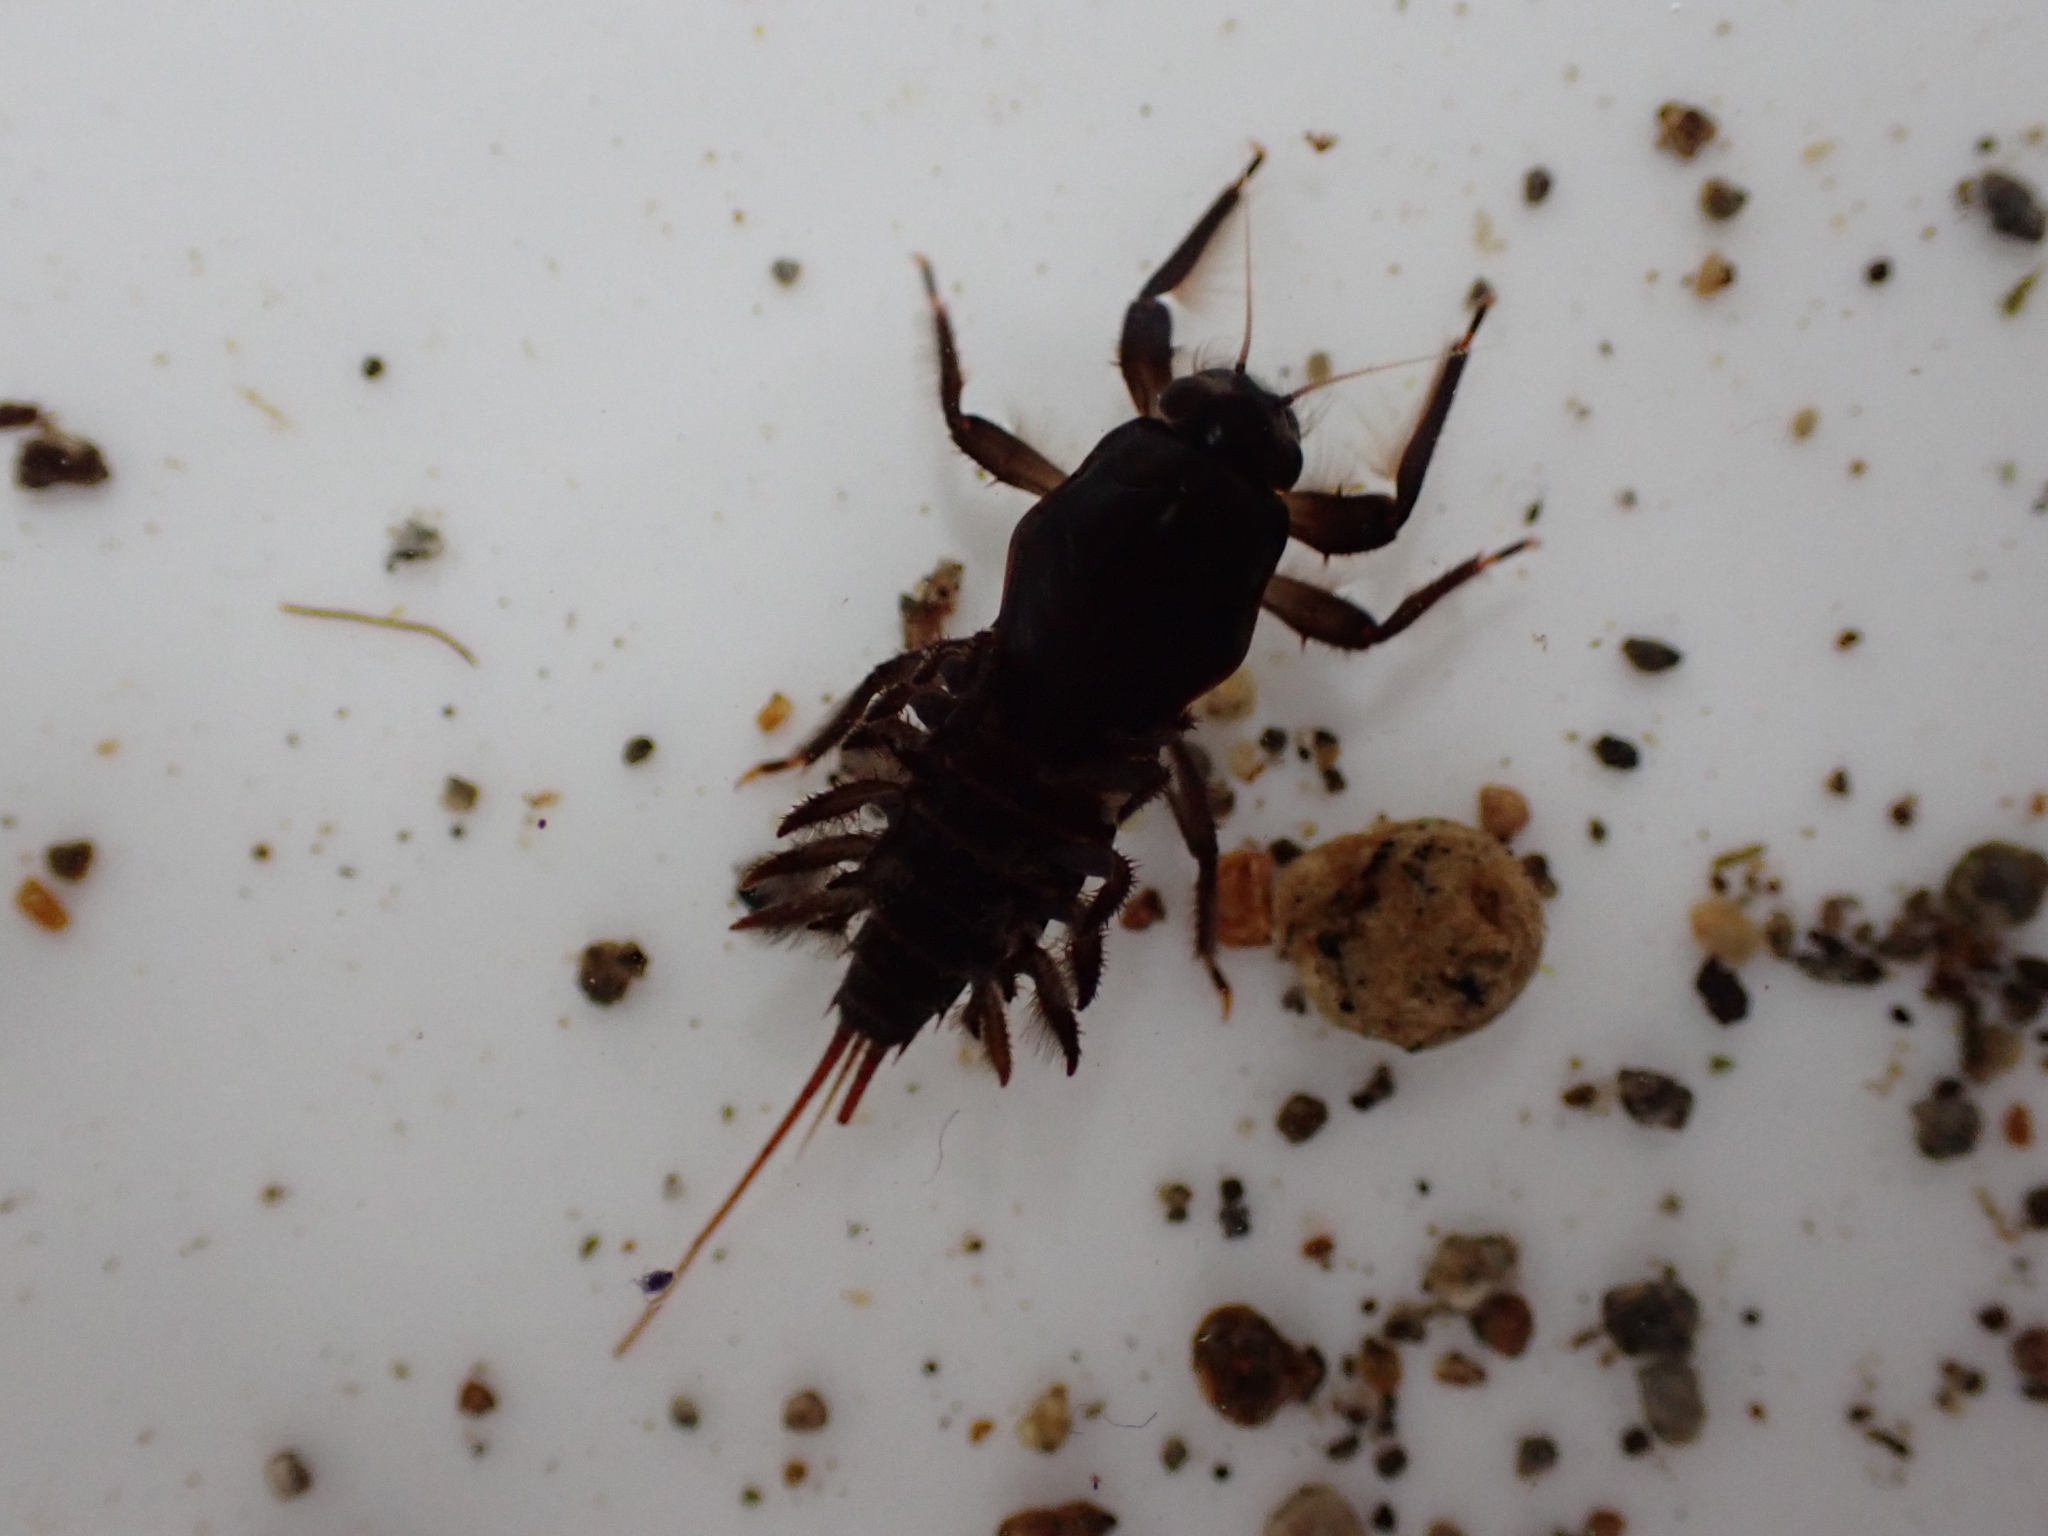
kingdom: Animalia
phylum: Arthropoda
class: Insecta
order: Ephemeroptera
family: Coloburiscidae
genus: Coloburiscus
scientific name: Coloburiscus humeralis
